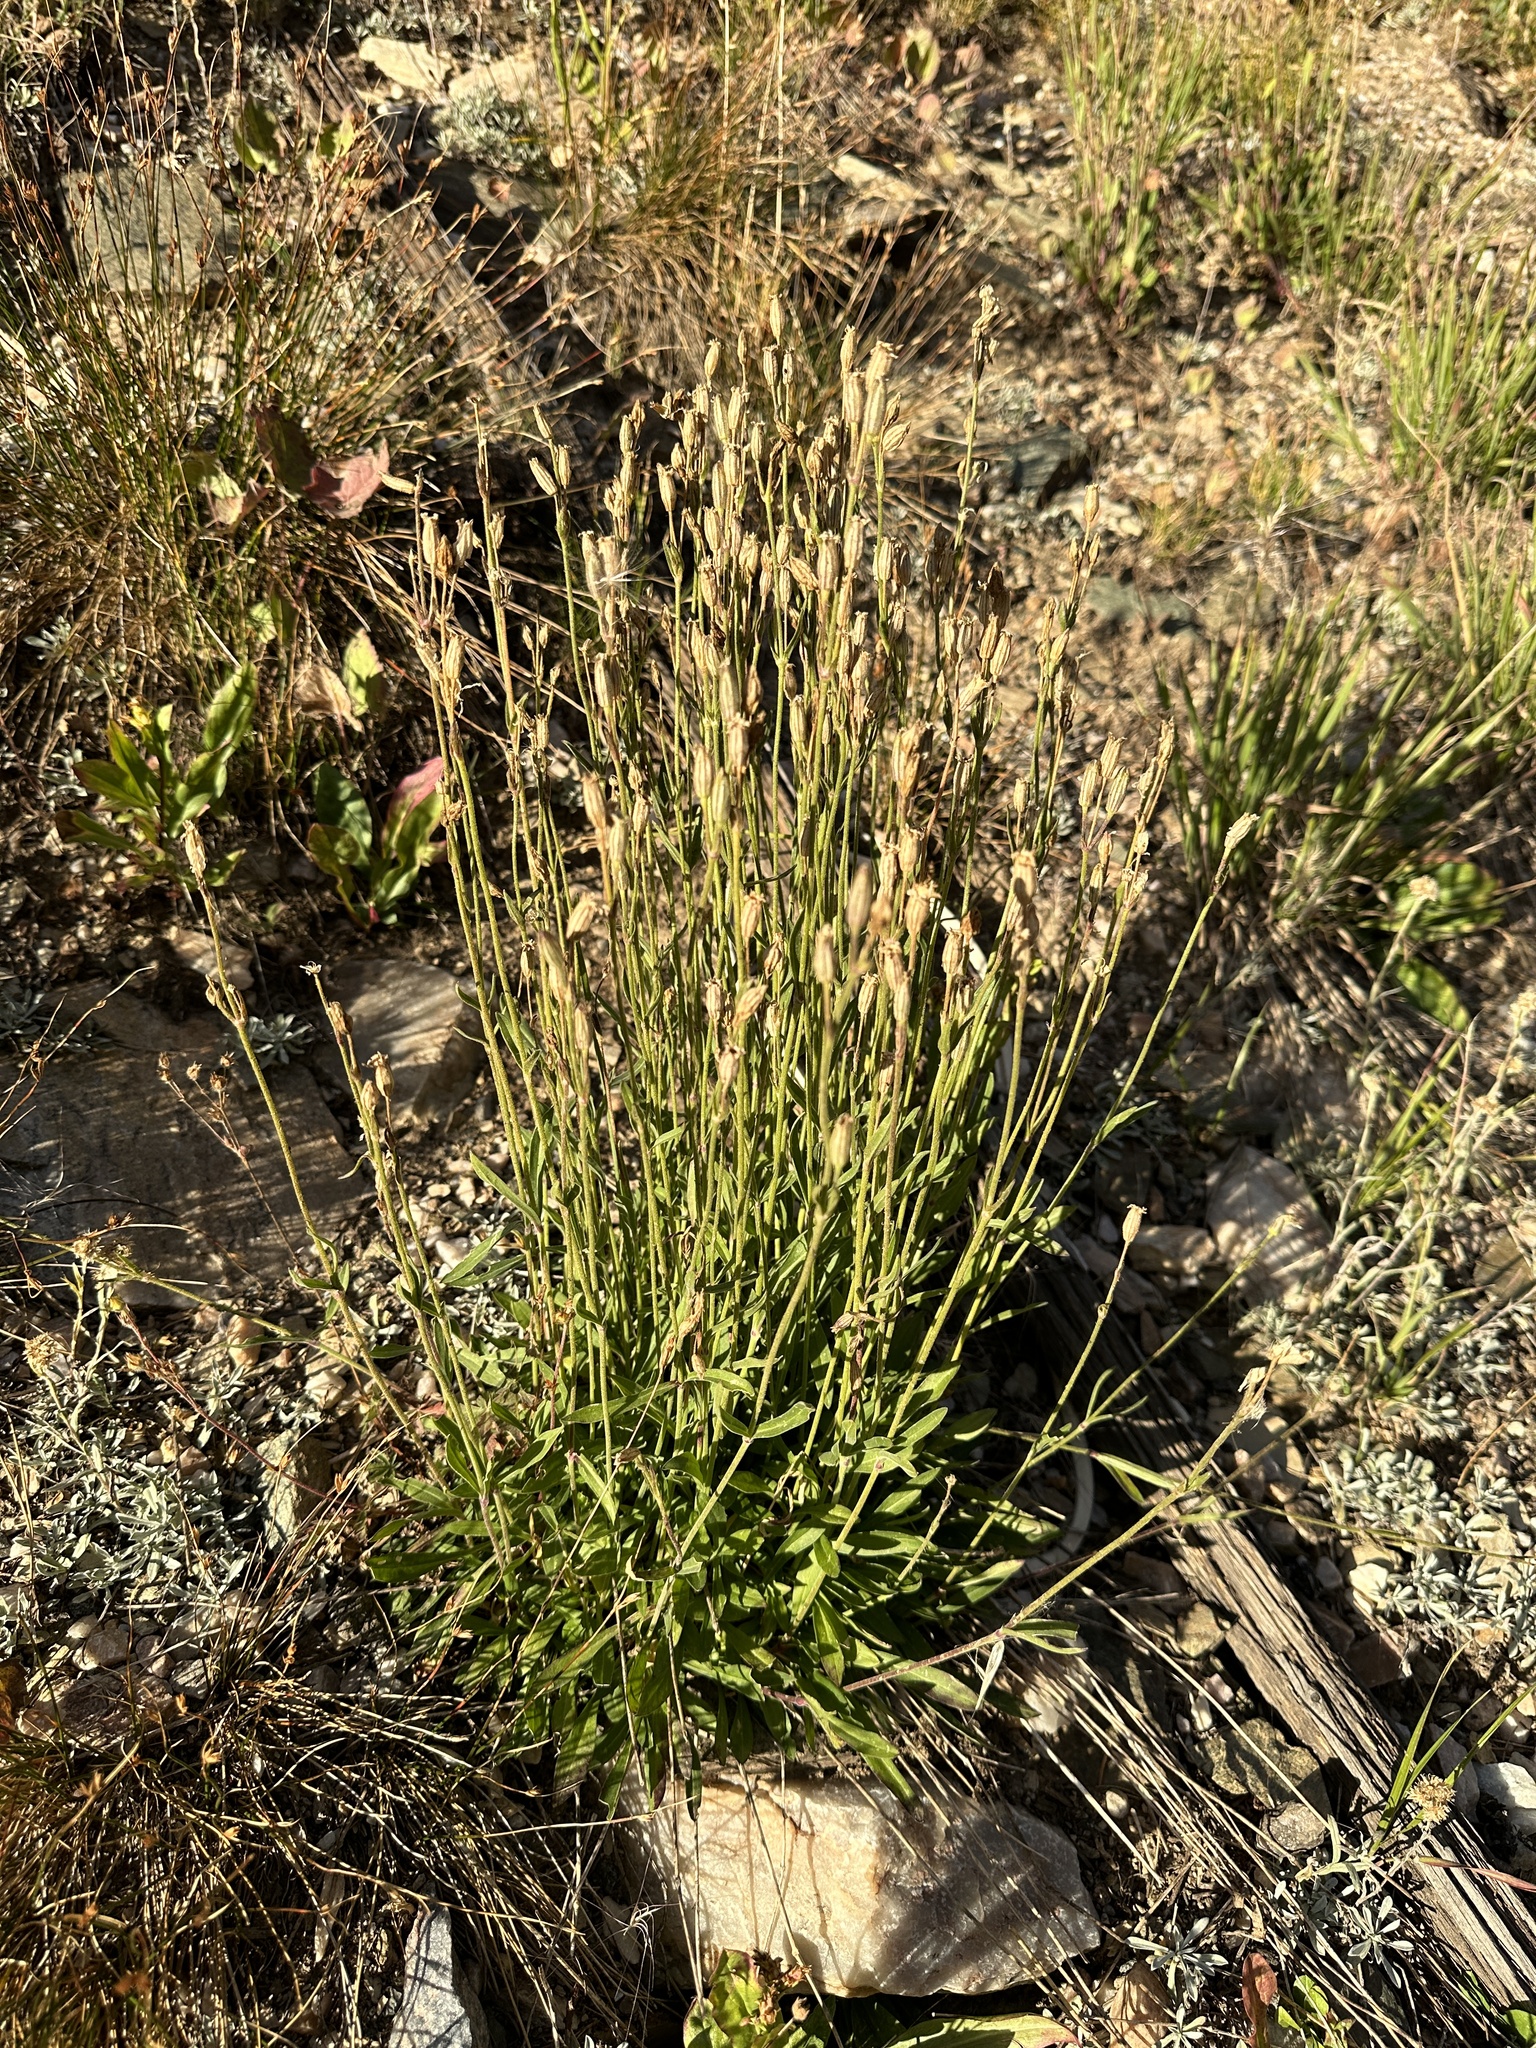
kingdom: Plantae
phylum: Tracheophyta
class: Magnoliopsida
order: Caryophyllales
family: Caryophyllaceae
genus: Silene
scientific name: Silene drummondii
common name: Drummond's catchfly
